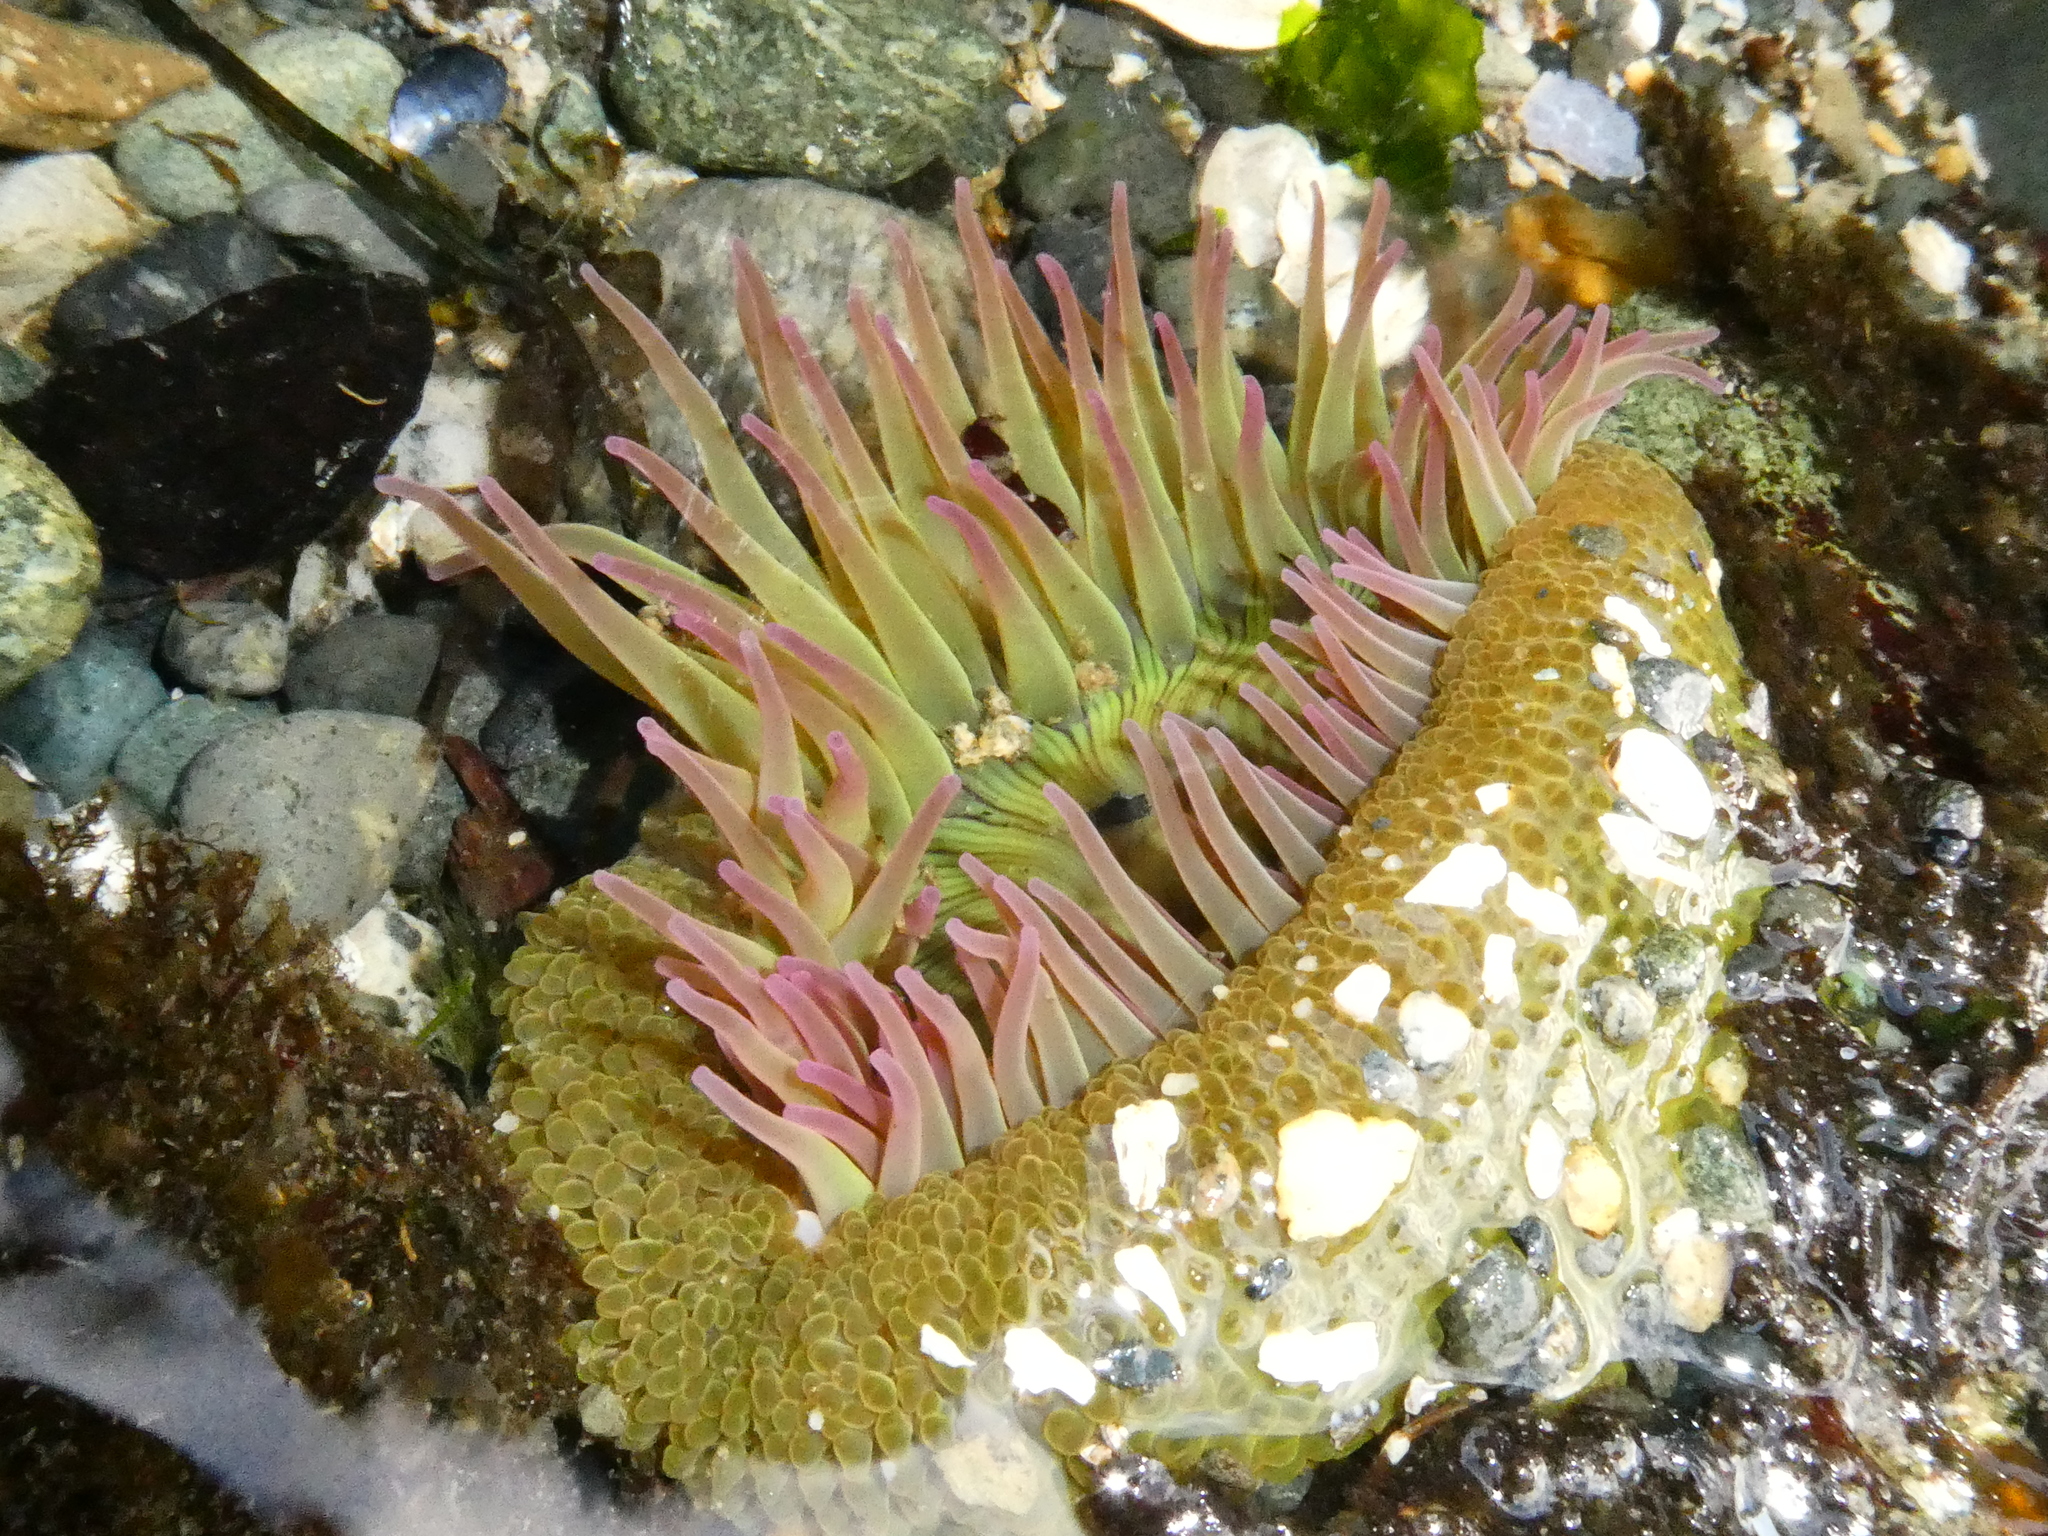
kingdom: Animalia
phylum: Cnidaria
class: Anthozoa
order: Actiniaria
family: Actiniidae
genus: Anthopleura
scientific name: Anthopleura elegantissima
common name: Clonal anemone
